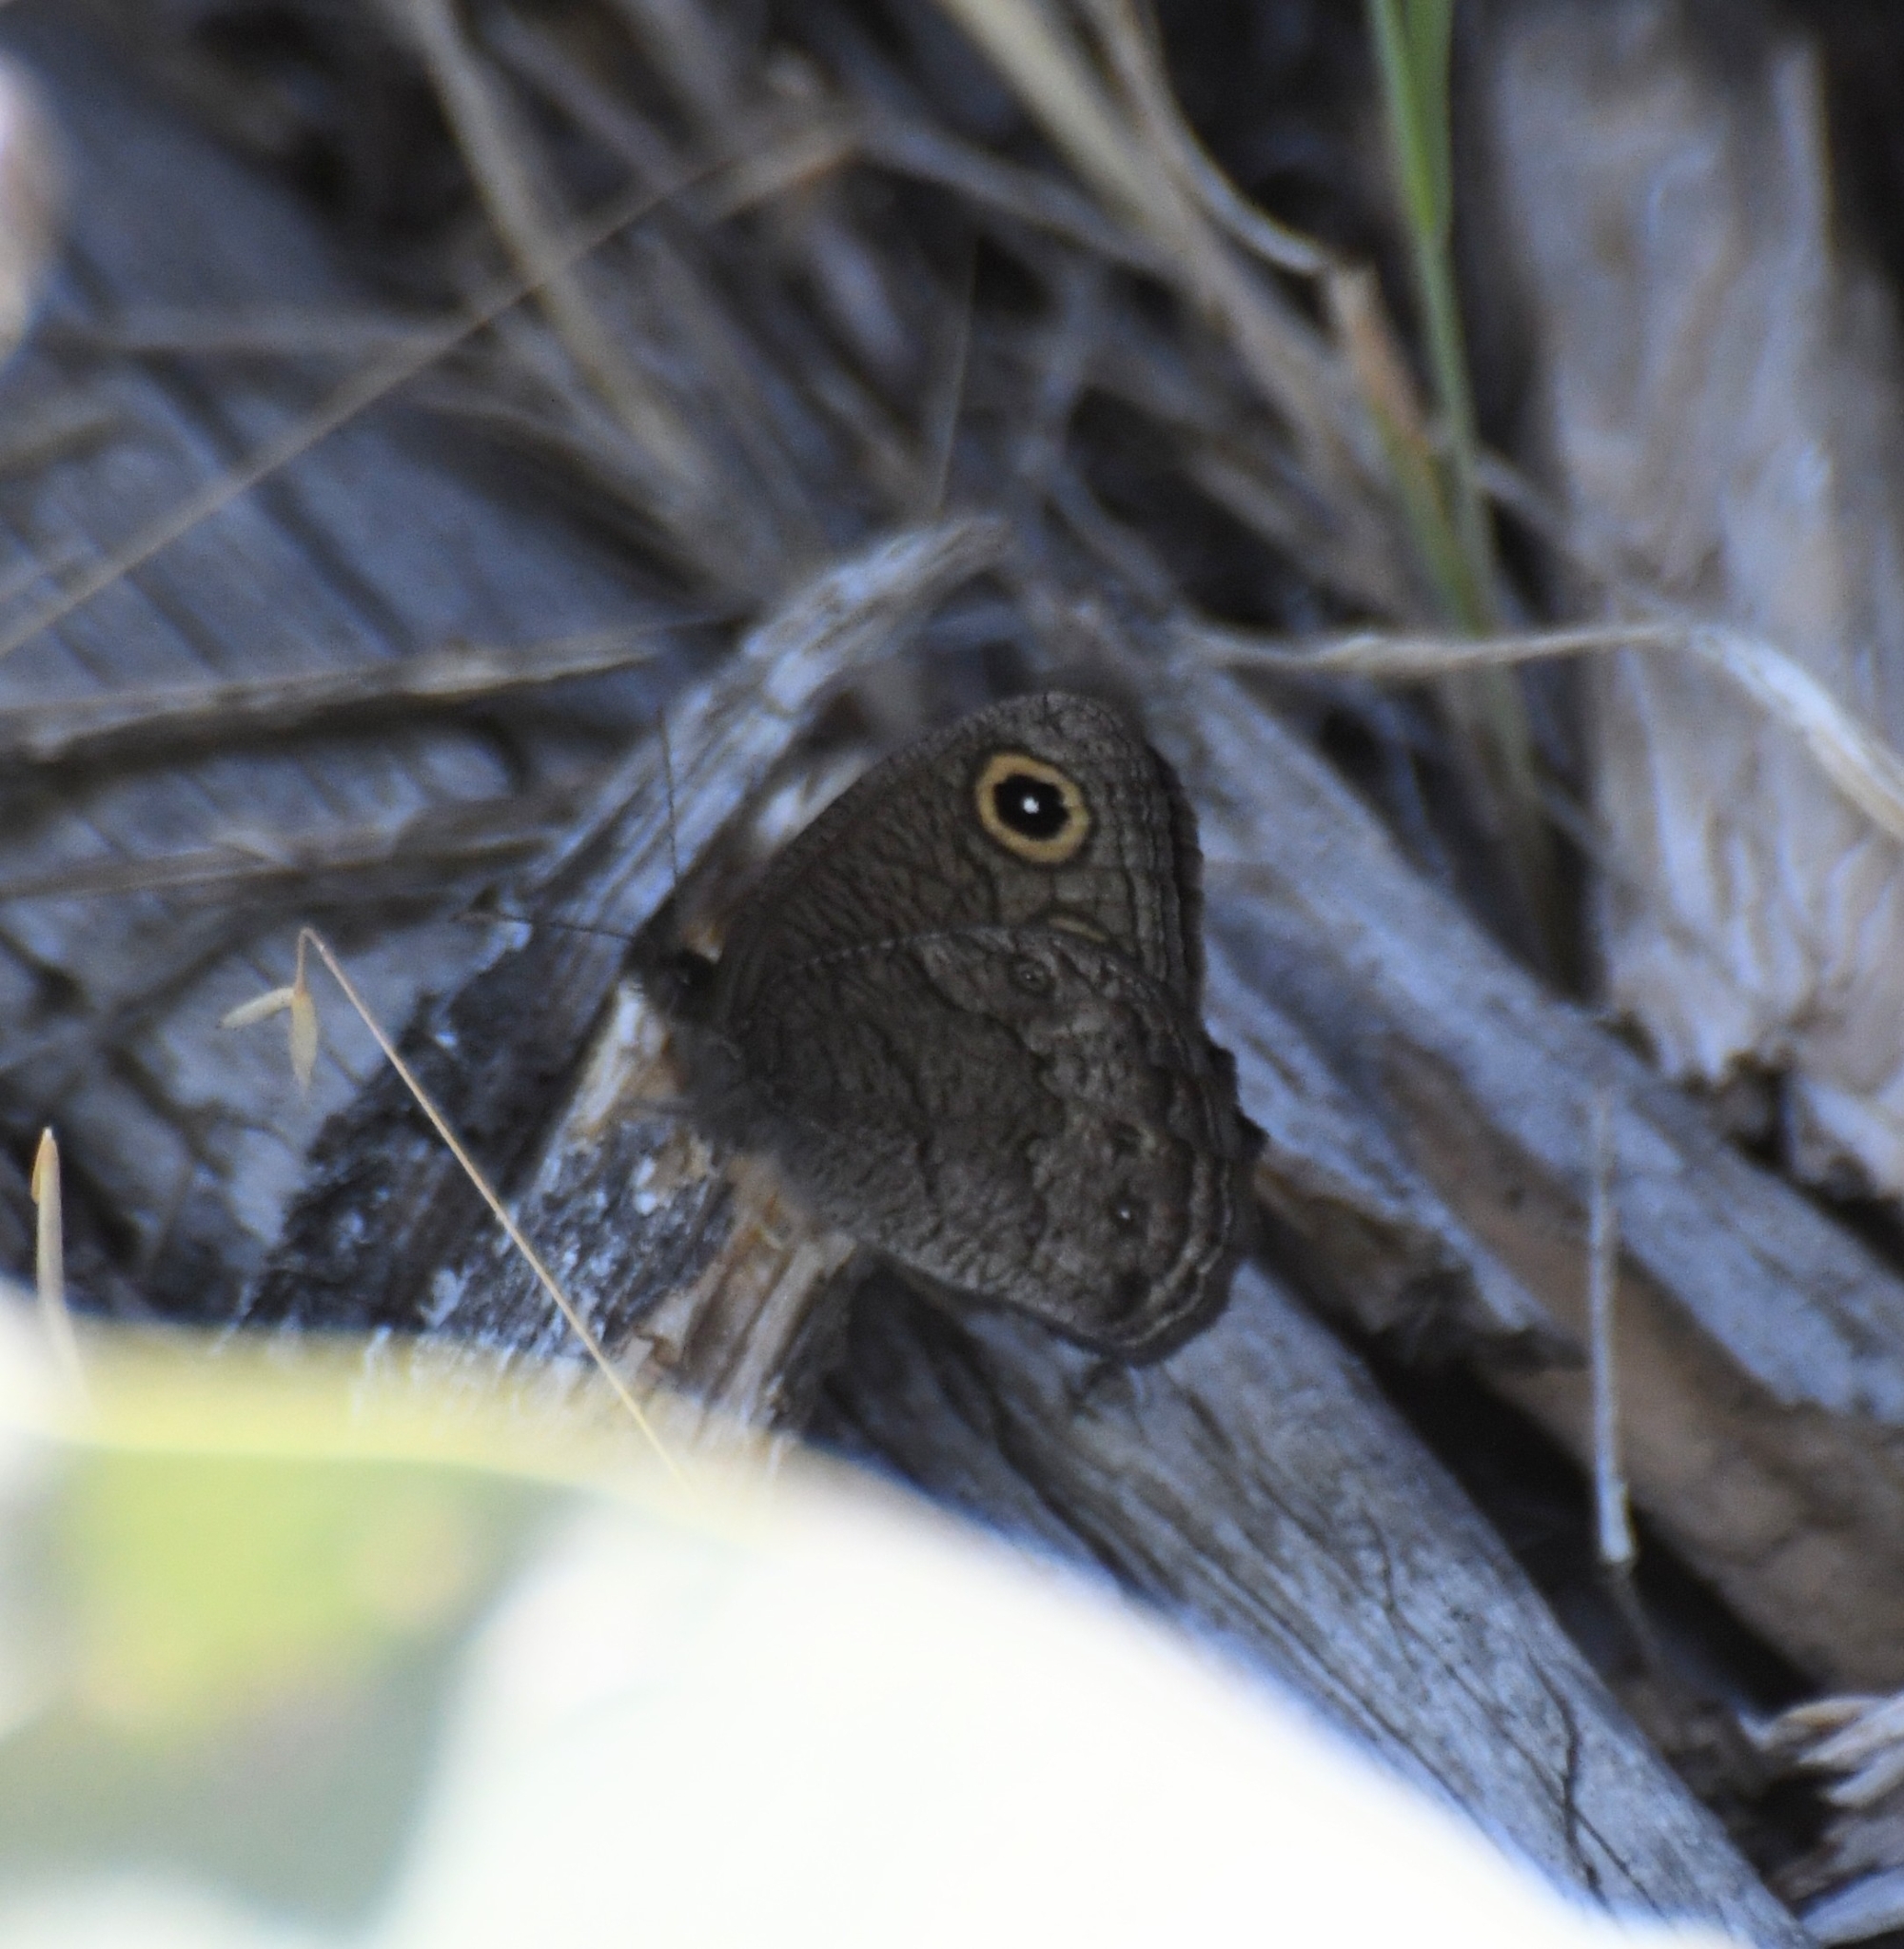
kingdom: Animalia
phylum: Arthropoda
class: Insecta
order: Lepidoptera
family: Nymphalidae
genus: Cercyonis
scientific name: Cercyonis sthenele
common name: Great basin wood-nymph
